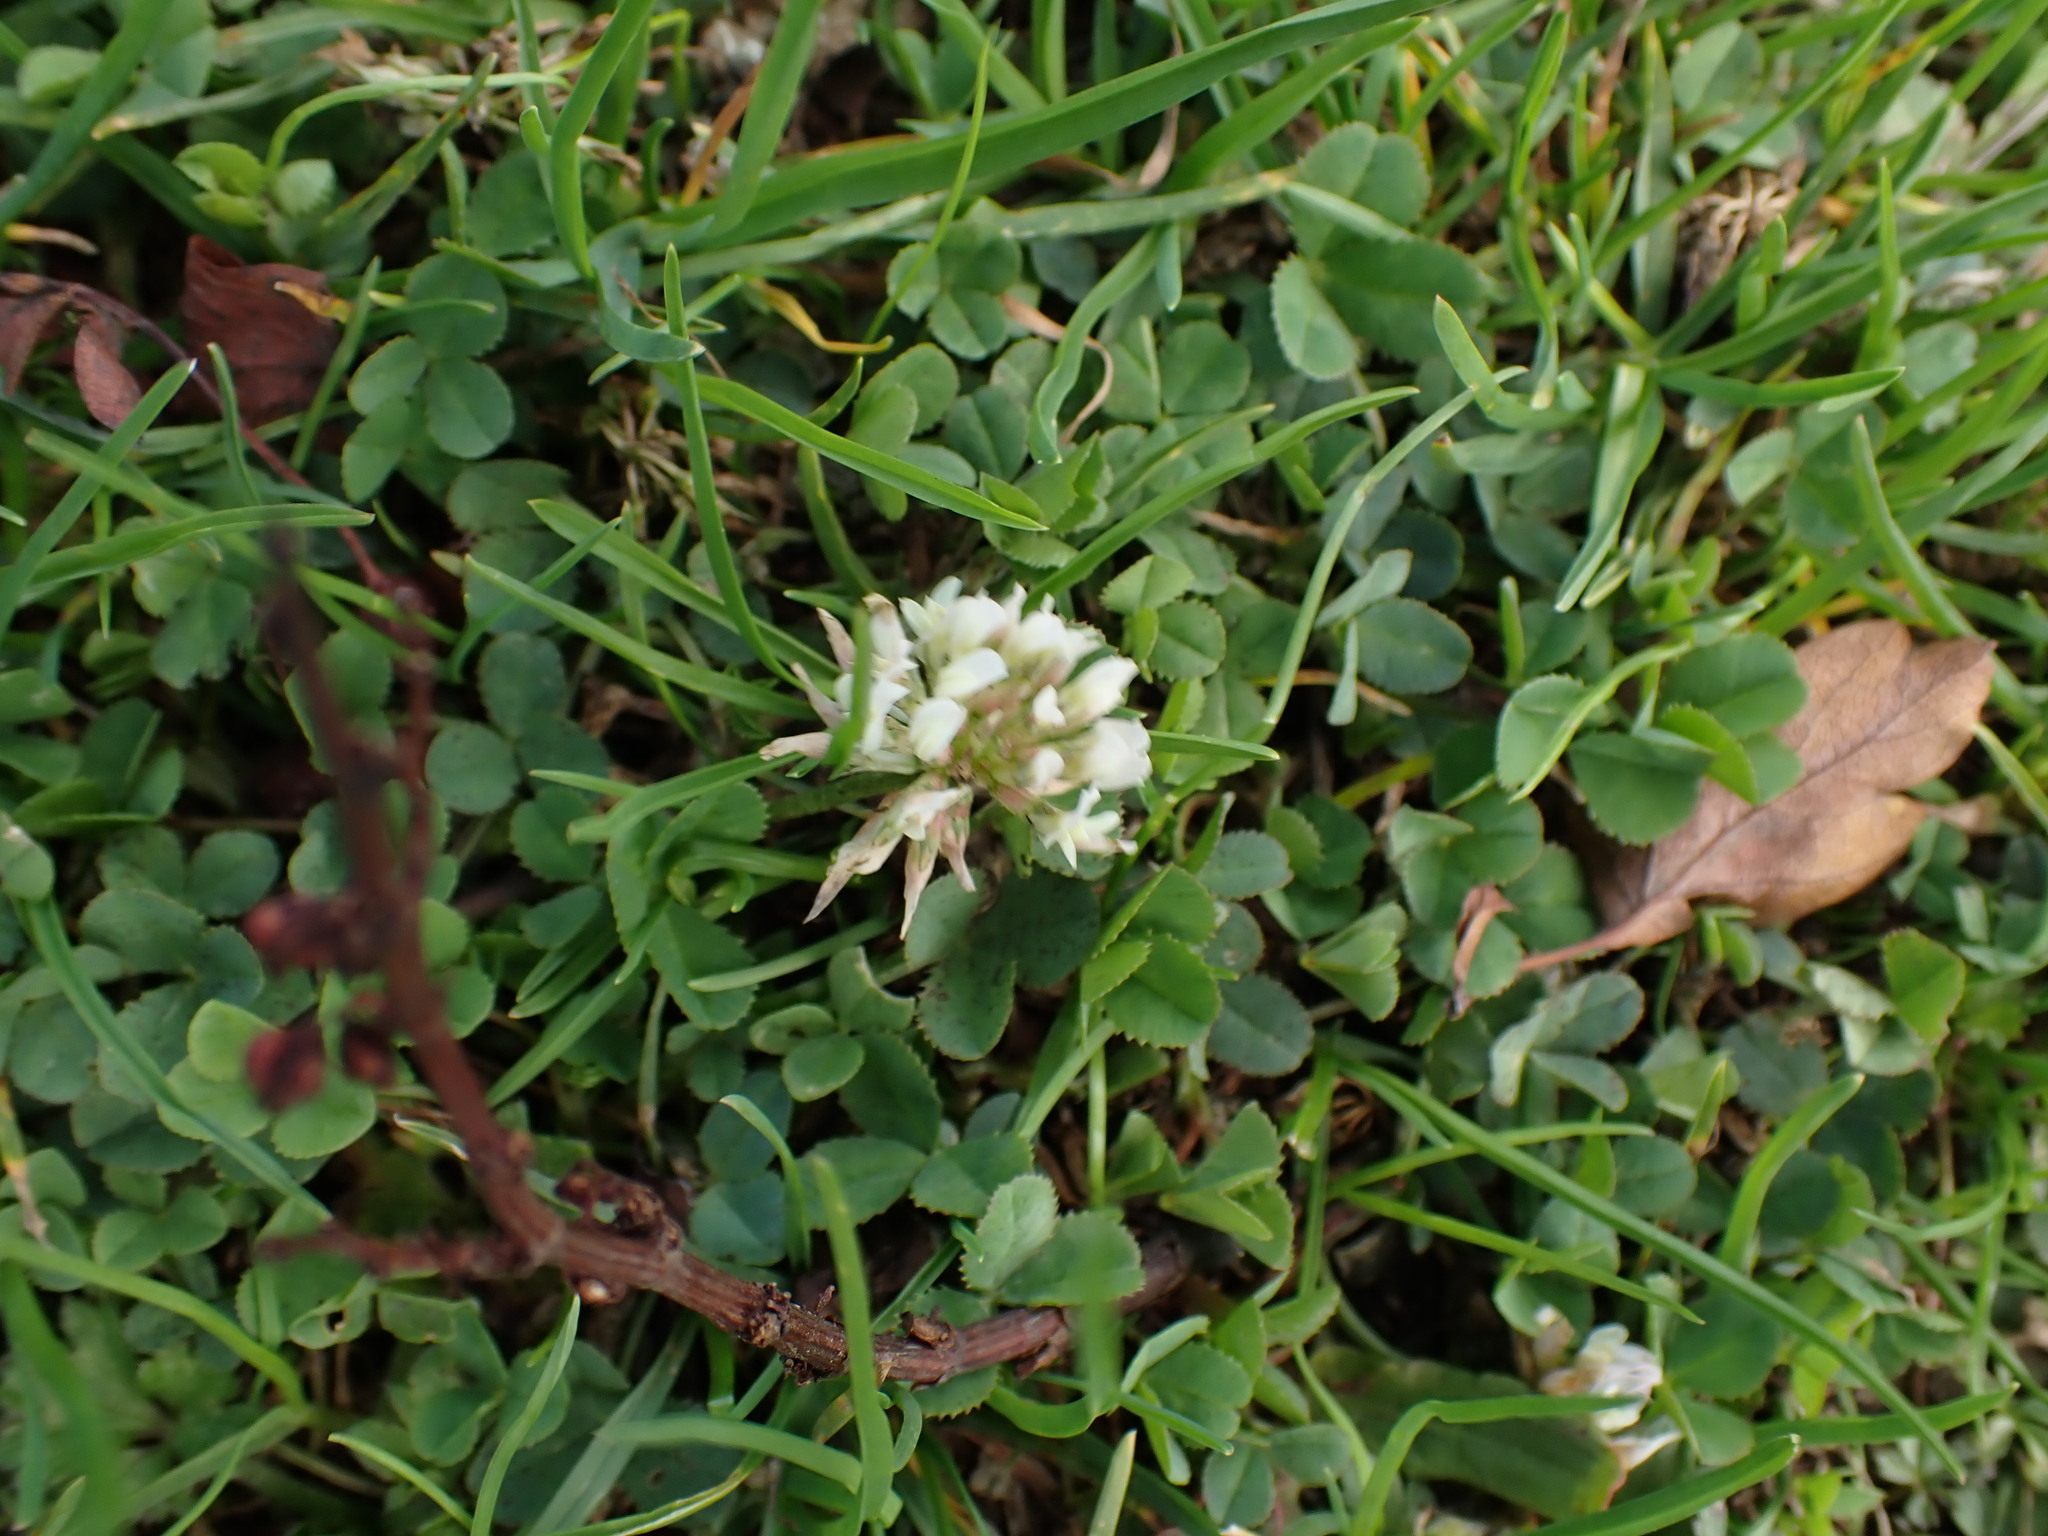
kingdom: Plantae
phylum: Tracheophyta
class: Magnoliopsida
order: Fabales
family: Fabaceae
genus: Trifolium
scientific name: Trifolium repens
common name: White clover
